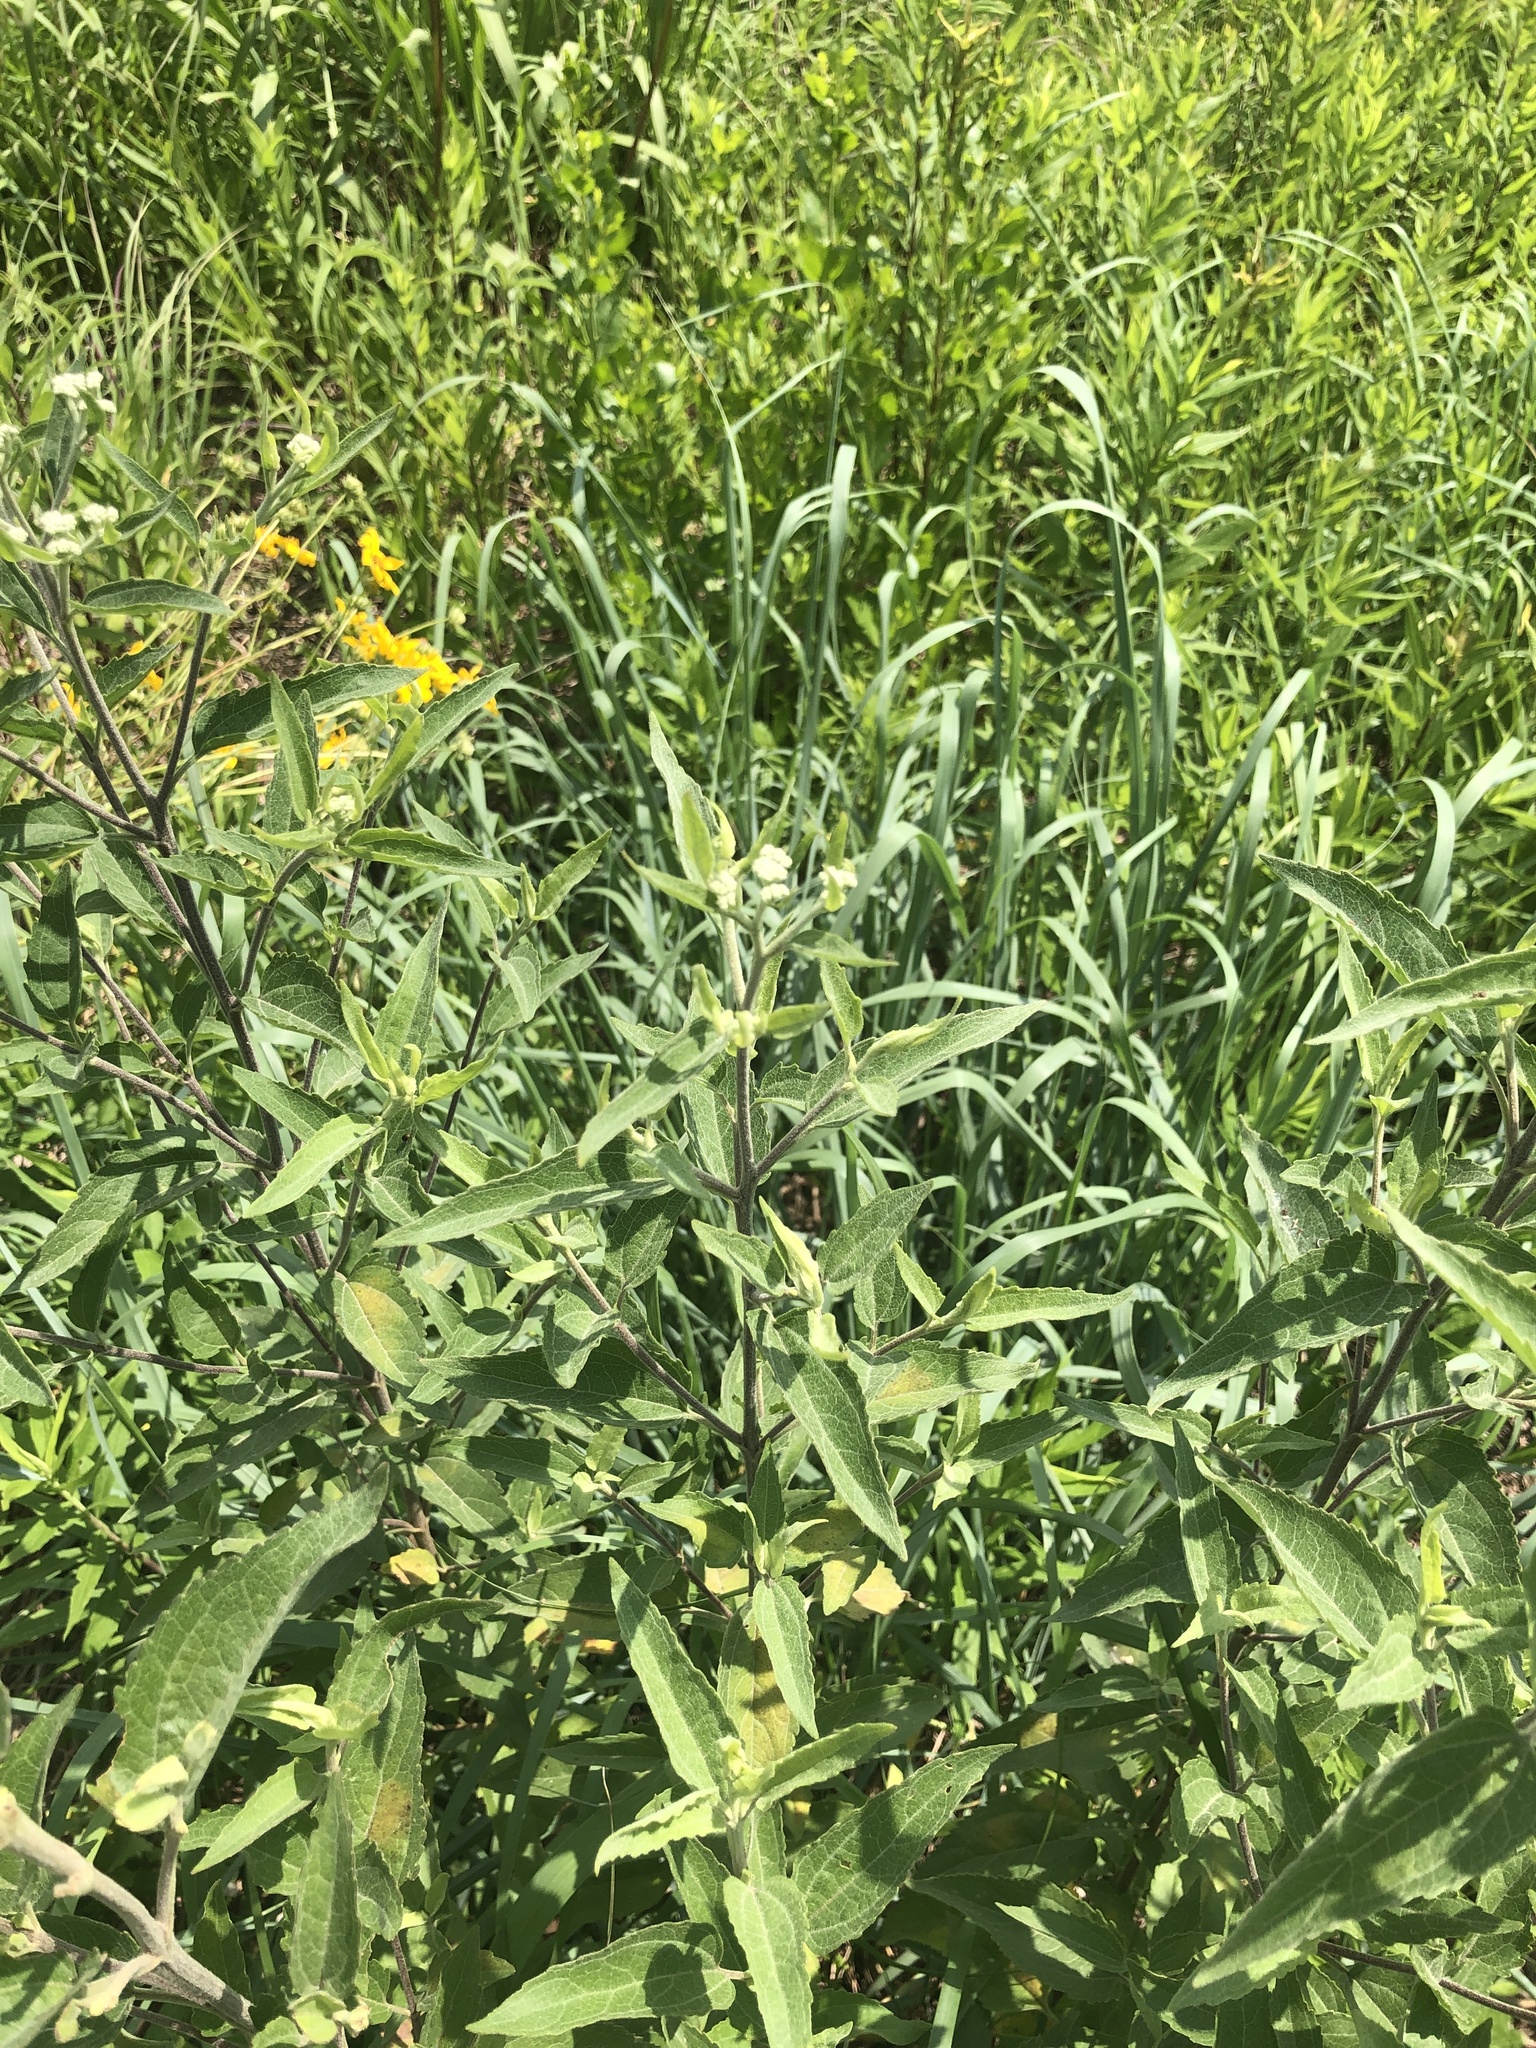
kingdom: Plantae
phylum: Tracheophyta
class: Magnoliopsida
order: Asterales
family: Asteraceae
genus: Eupatorium
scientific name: Eupatorium serotinum
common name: Late boneset
